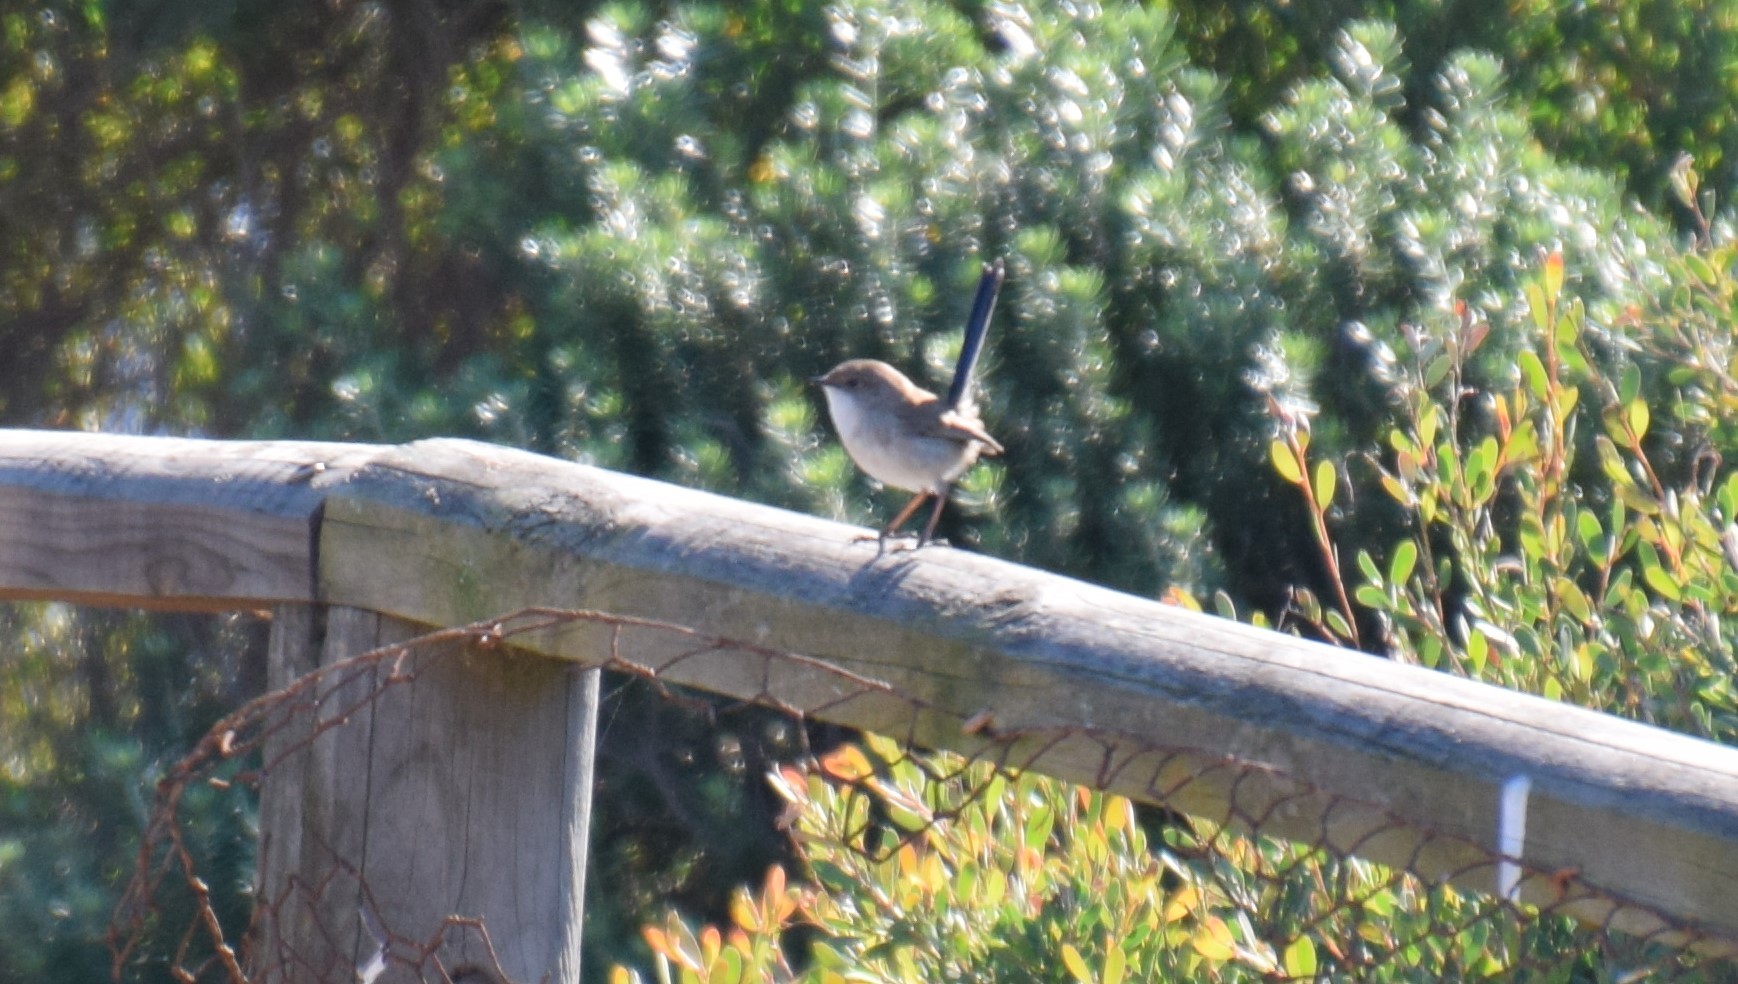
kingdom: Animalia
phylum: Chordata
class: Aves
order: Passeriformes
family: Maluridae
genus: Malurus
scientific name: Malurus cyaneus
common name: Superb fairywren
